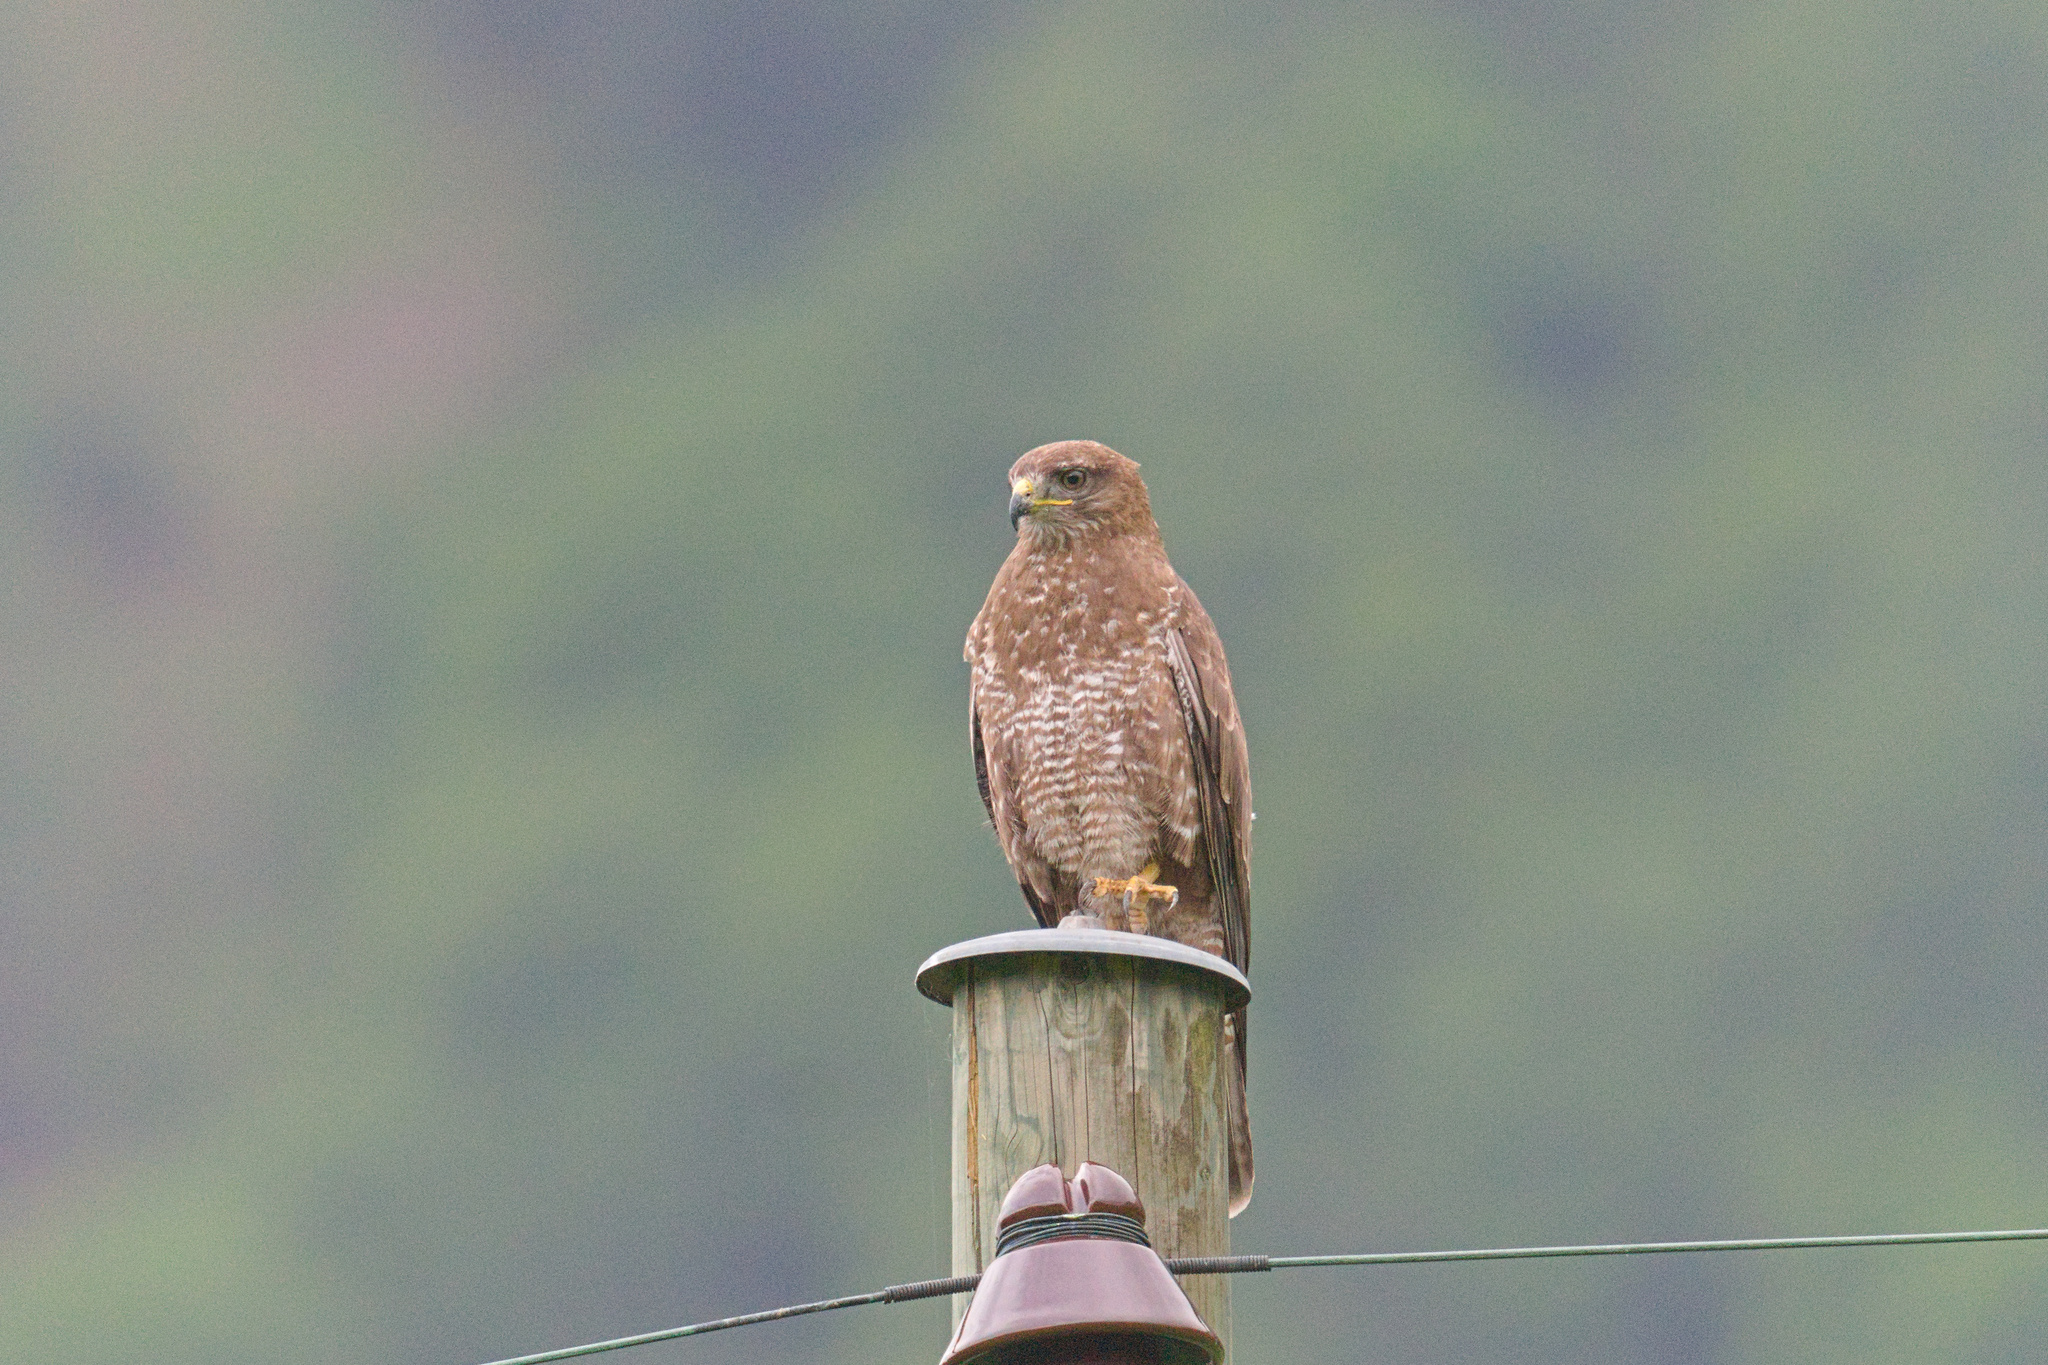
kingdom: Animalia
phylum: Chordata
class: Aves
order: Accipitriformes
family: Accipitridae
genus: Buteo
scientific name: Buteo buteo
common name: Common buzzard
